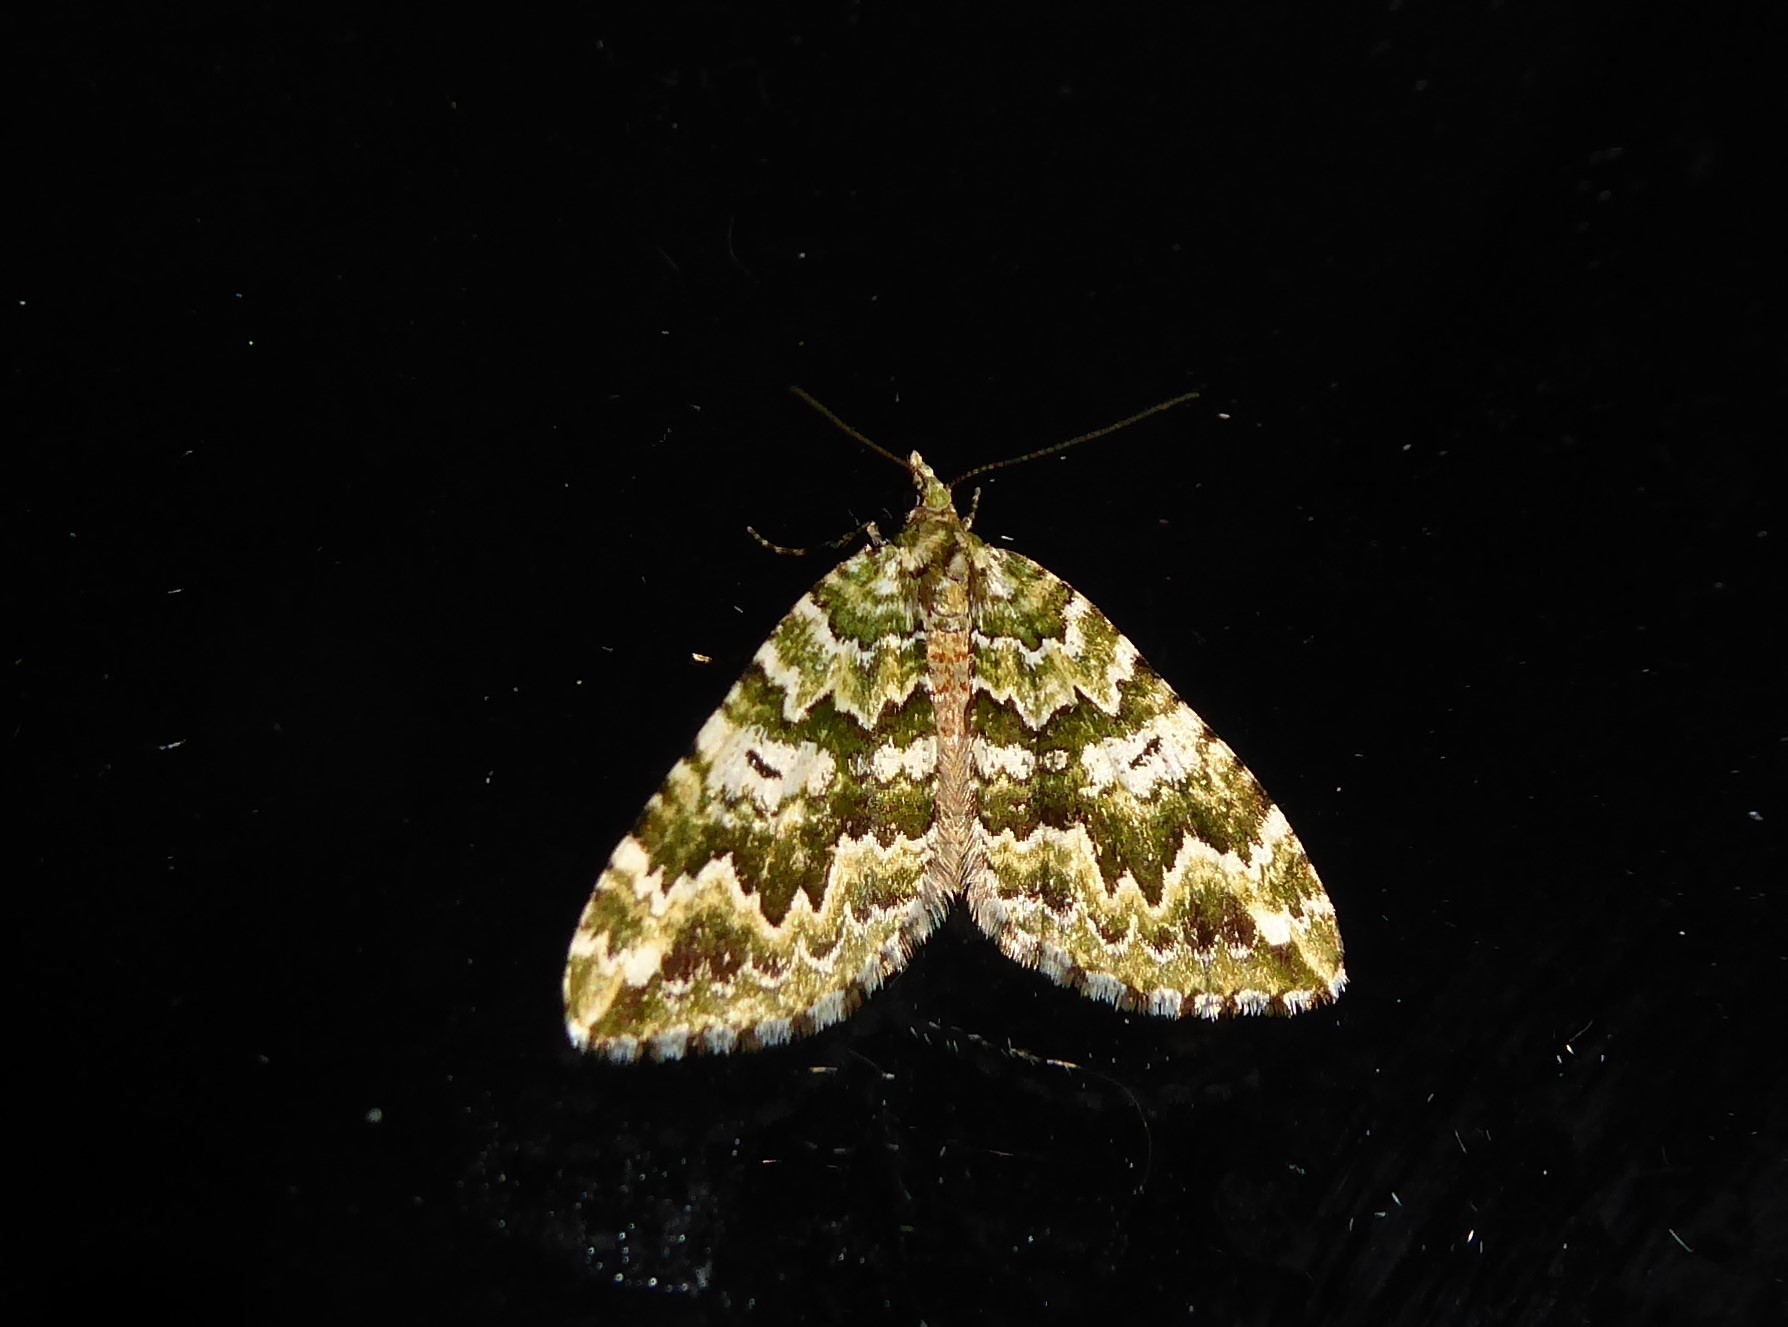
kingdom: Animalia
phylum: Arthropoda
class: Insecta
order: Lepidoptera
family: Geometridae
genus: Asaphodes
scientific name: Asaphodes beata
